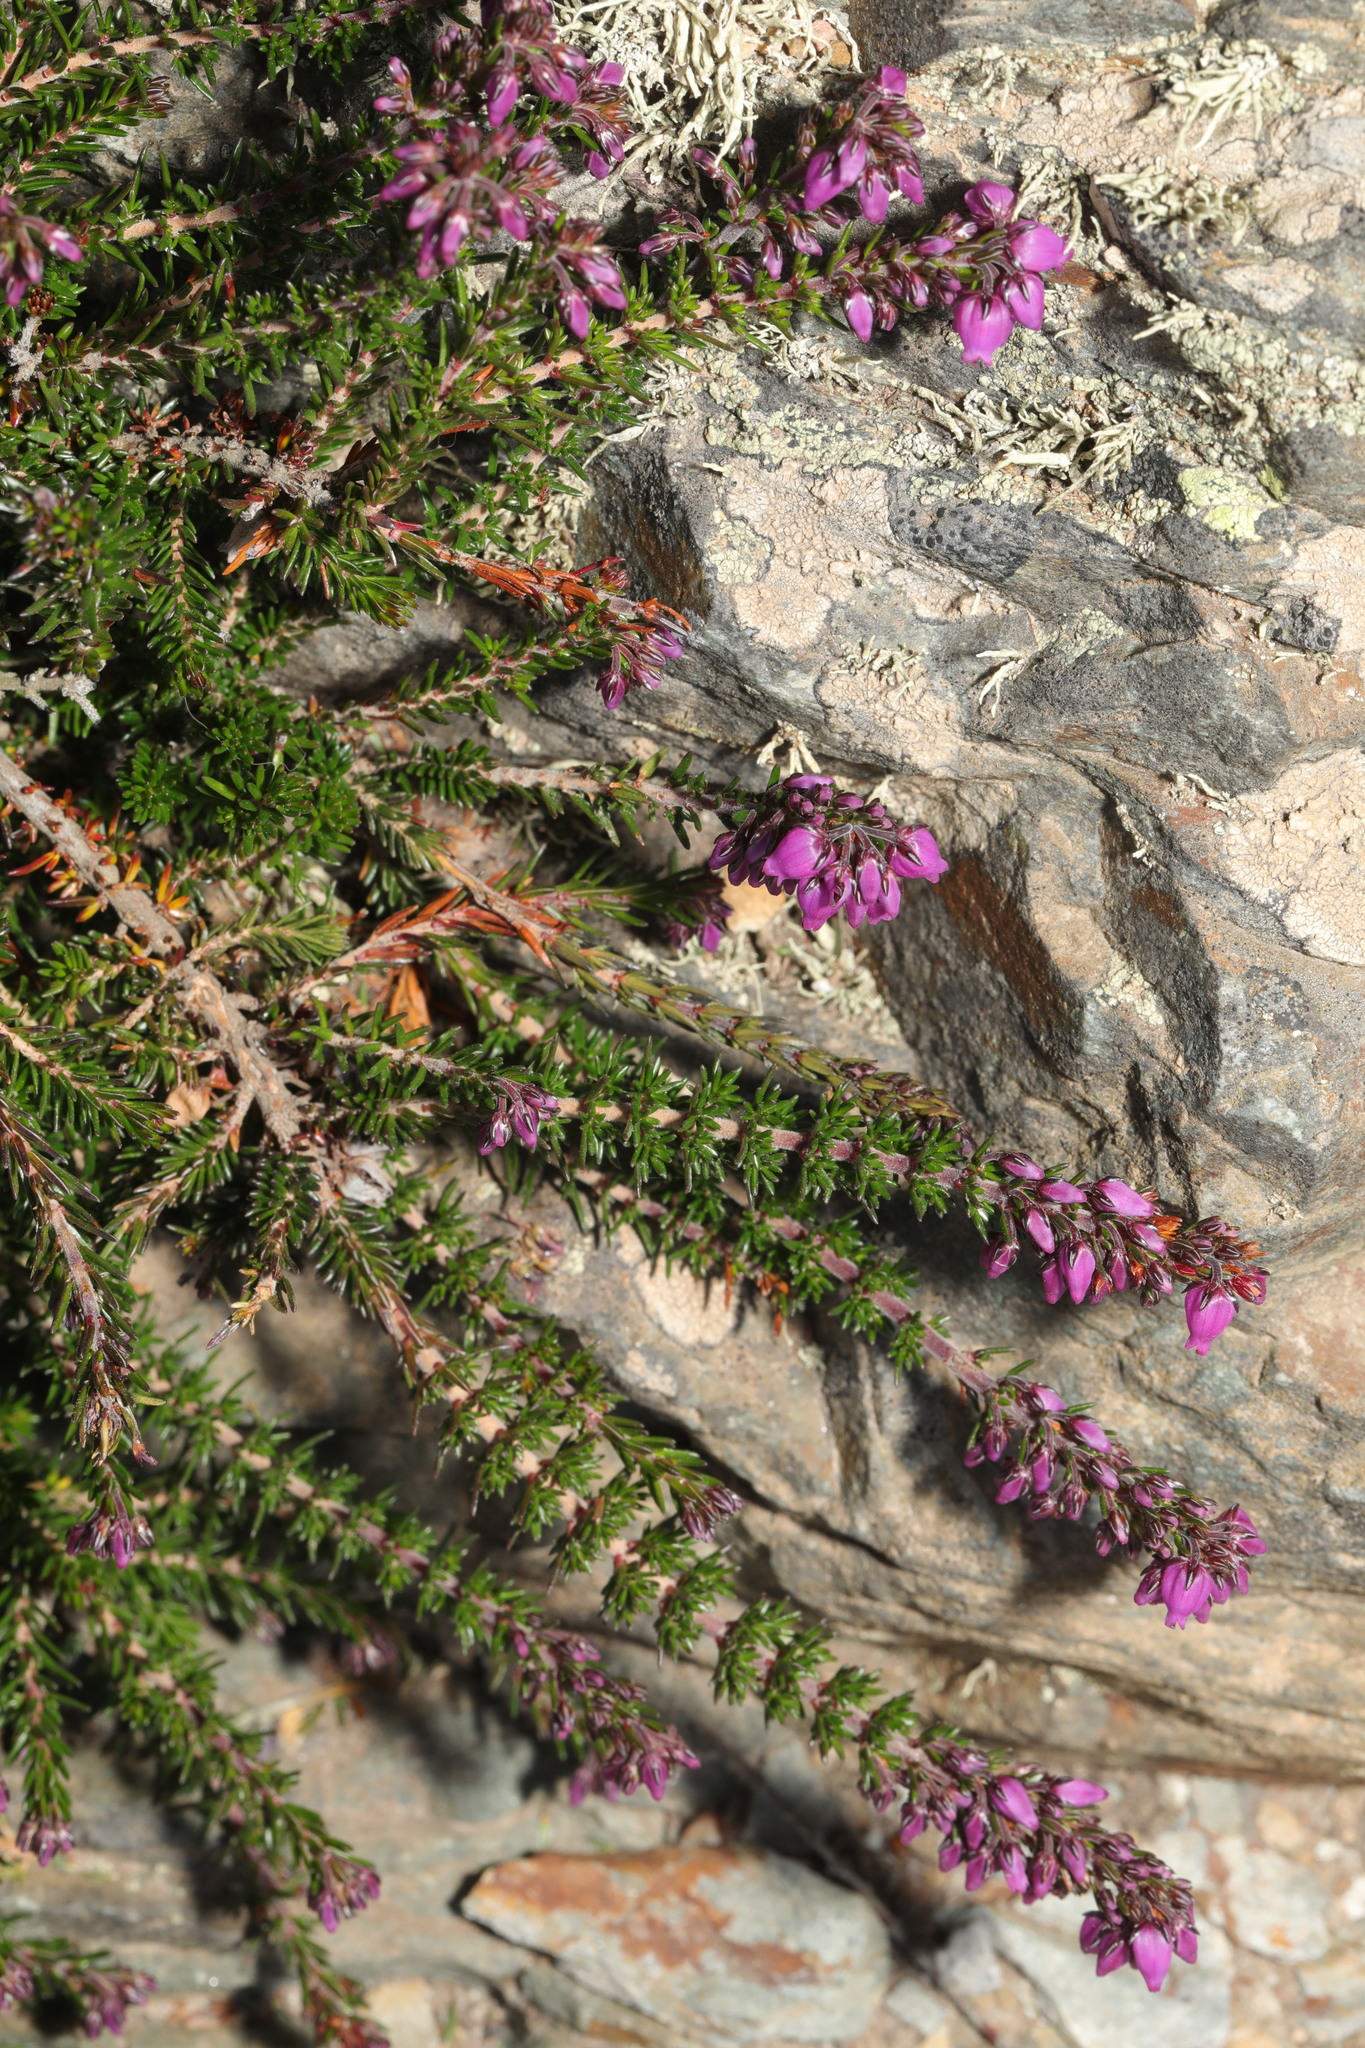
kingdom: Plantae
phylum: Tracheophyta
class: Magnoliopsida
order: Ericales
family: Ericaceae
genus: Erica
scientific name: Erica cinerea
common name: Bell heather
